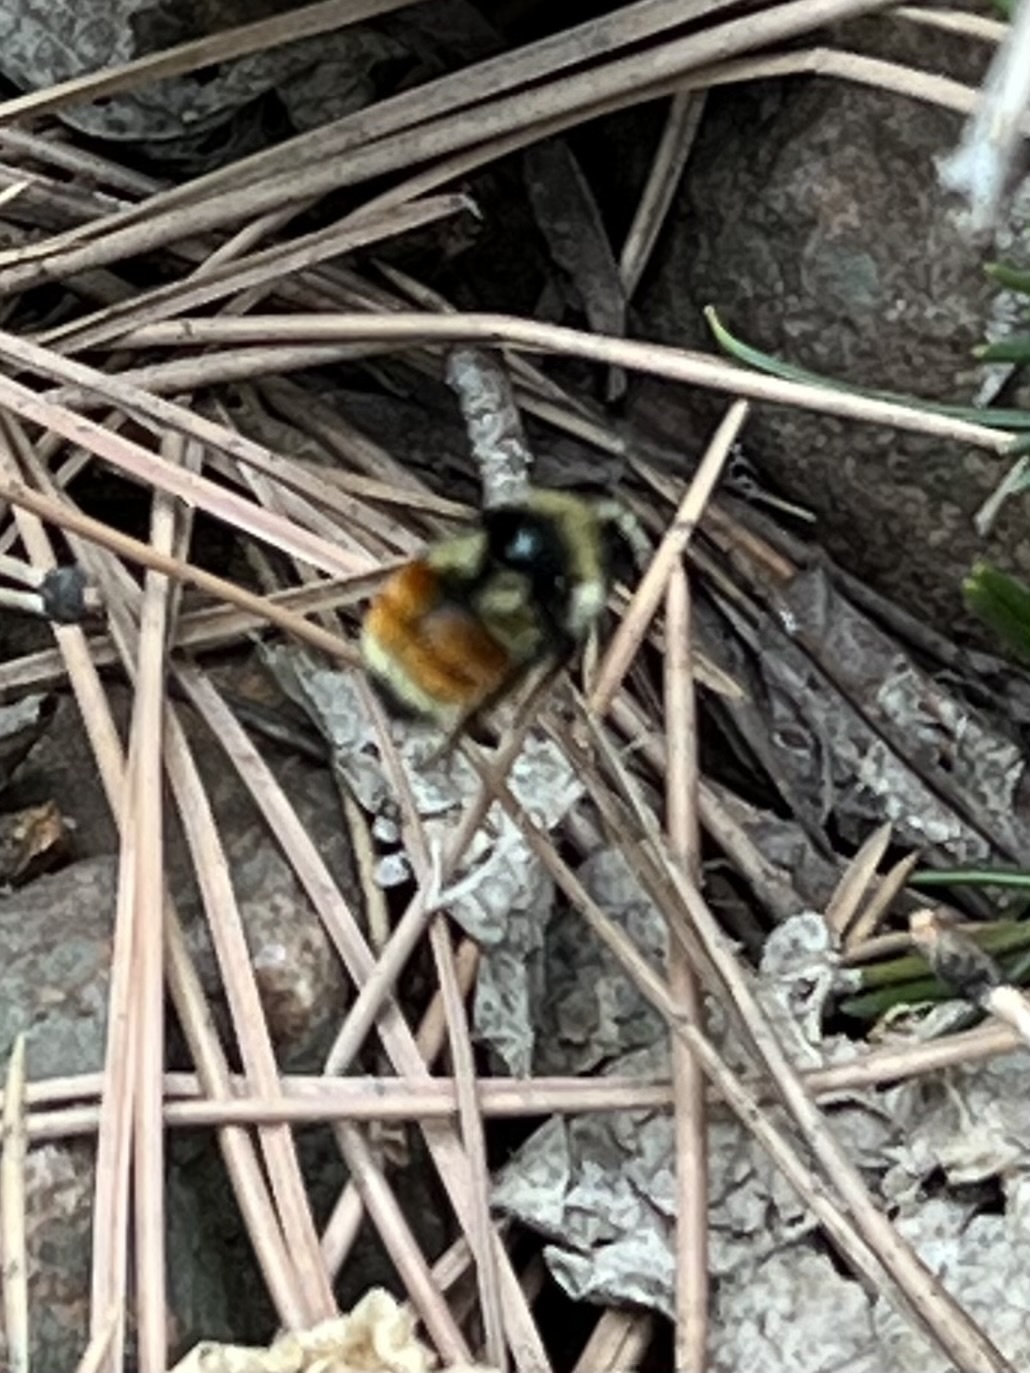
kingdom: Animalia
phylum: Arthropoda
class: Insecta
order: Hymenoptera
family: Apidae
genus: Bombus
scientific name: Bombus bifarius
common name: Two form bumble bee
